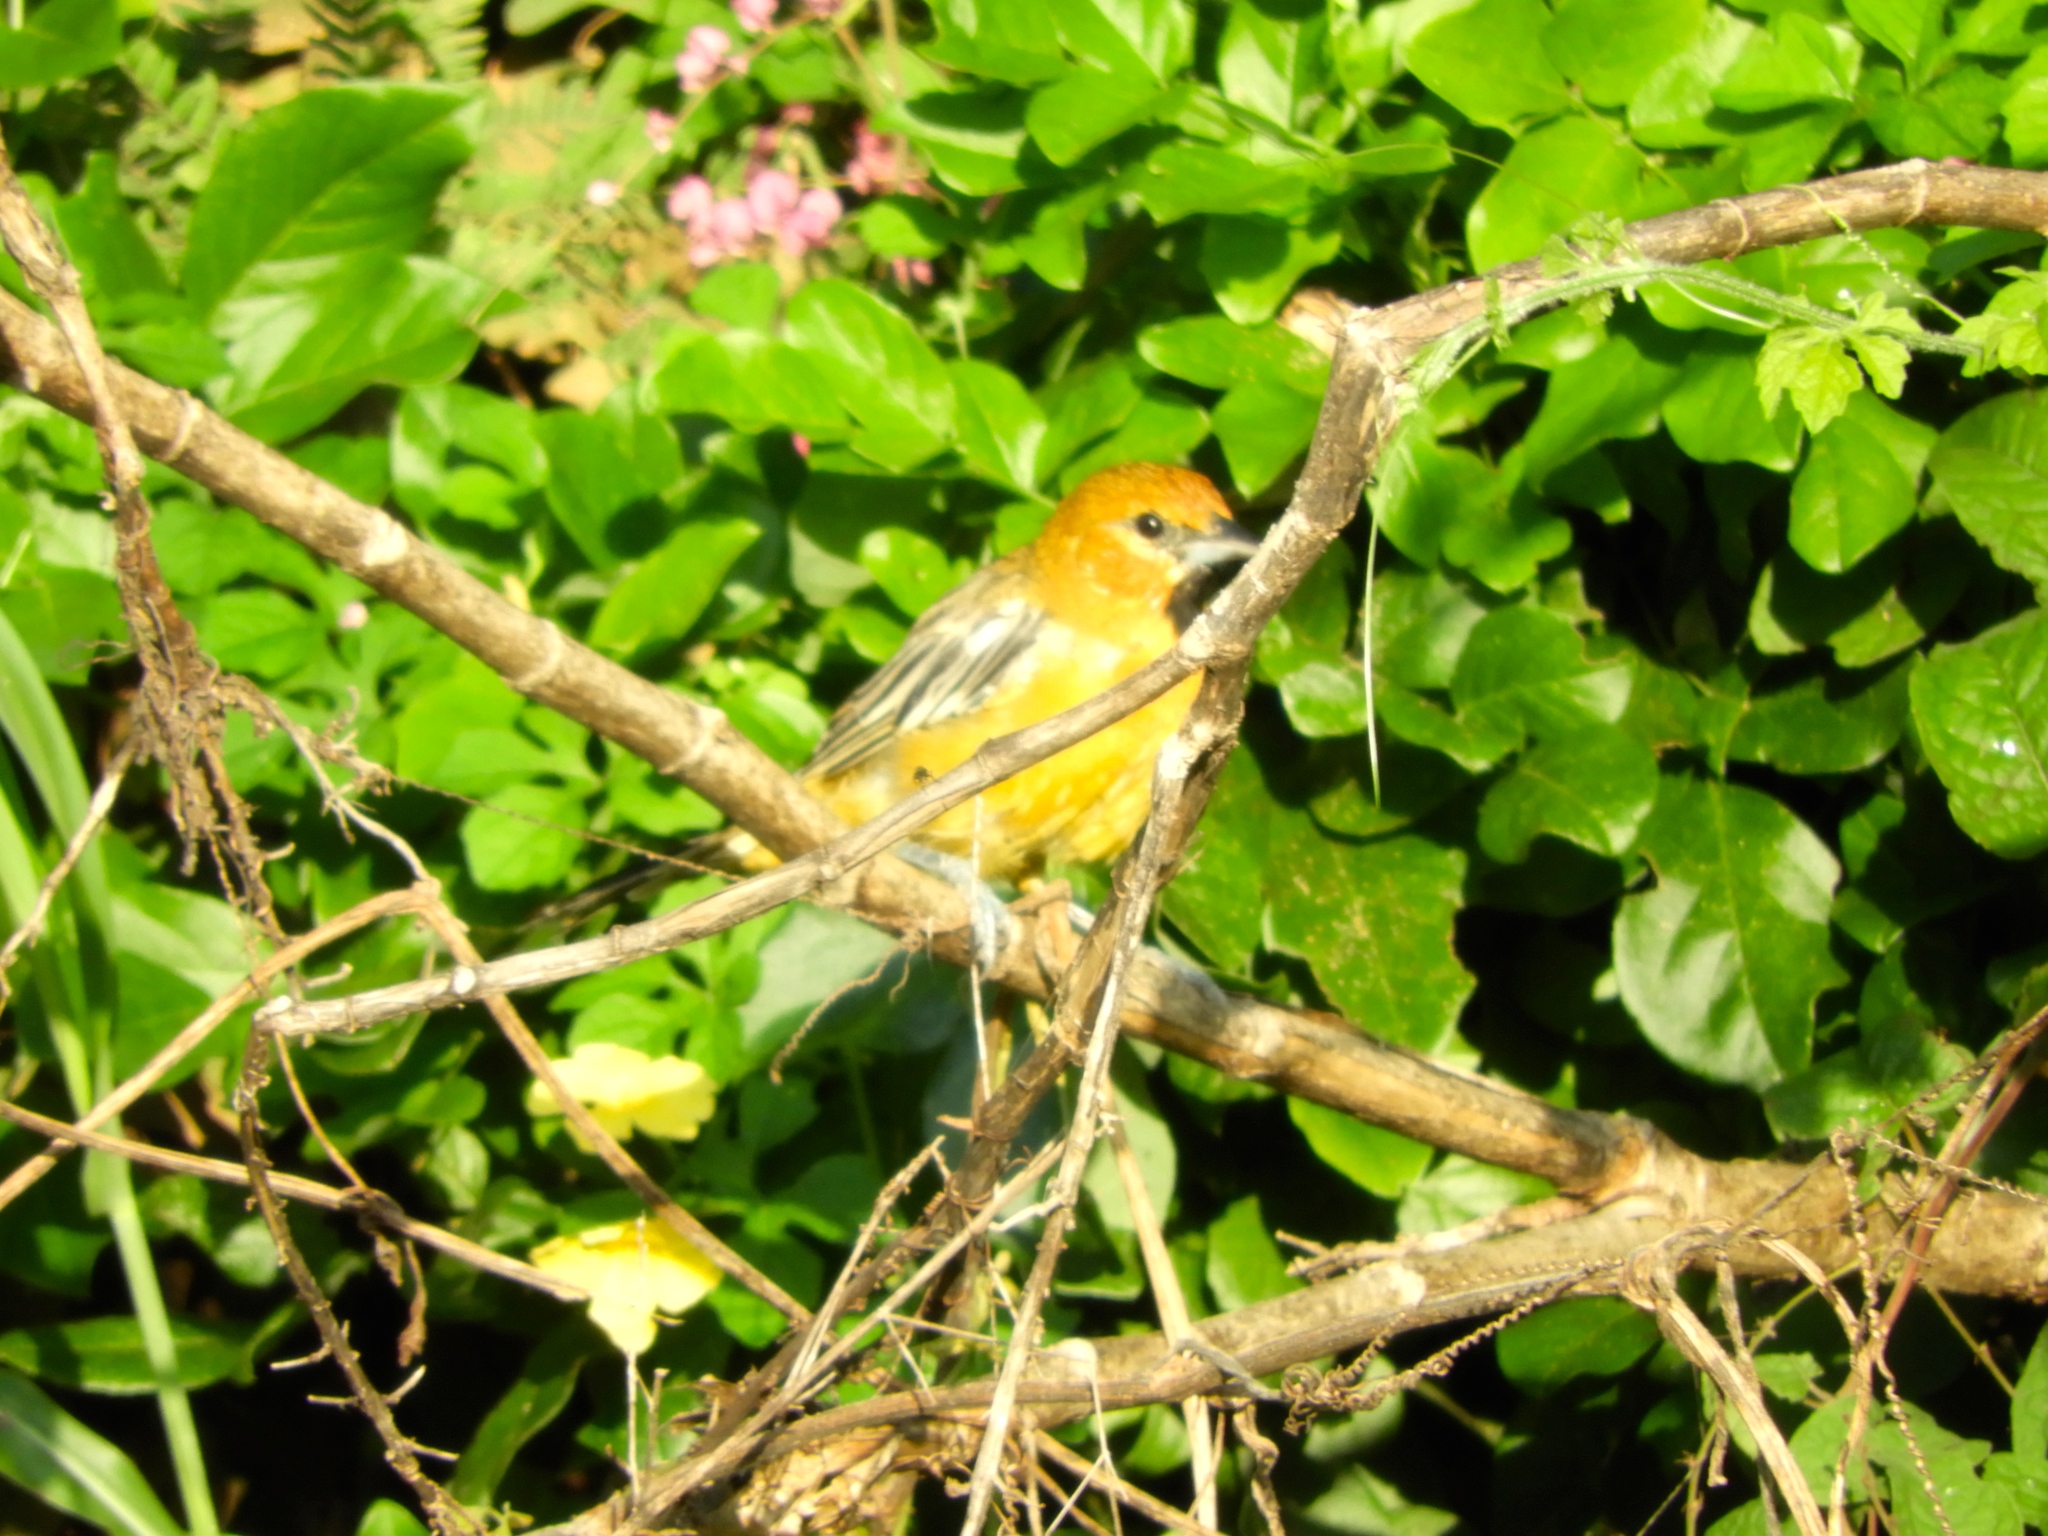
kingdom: Animalia
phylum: Chordata
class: Aves
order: Passeriformes
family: Icteridae
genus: Icterus
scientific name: Icterus pustulatus
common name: Streak-backed oriole
